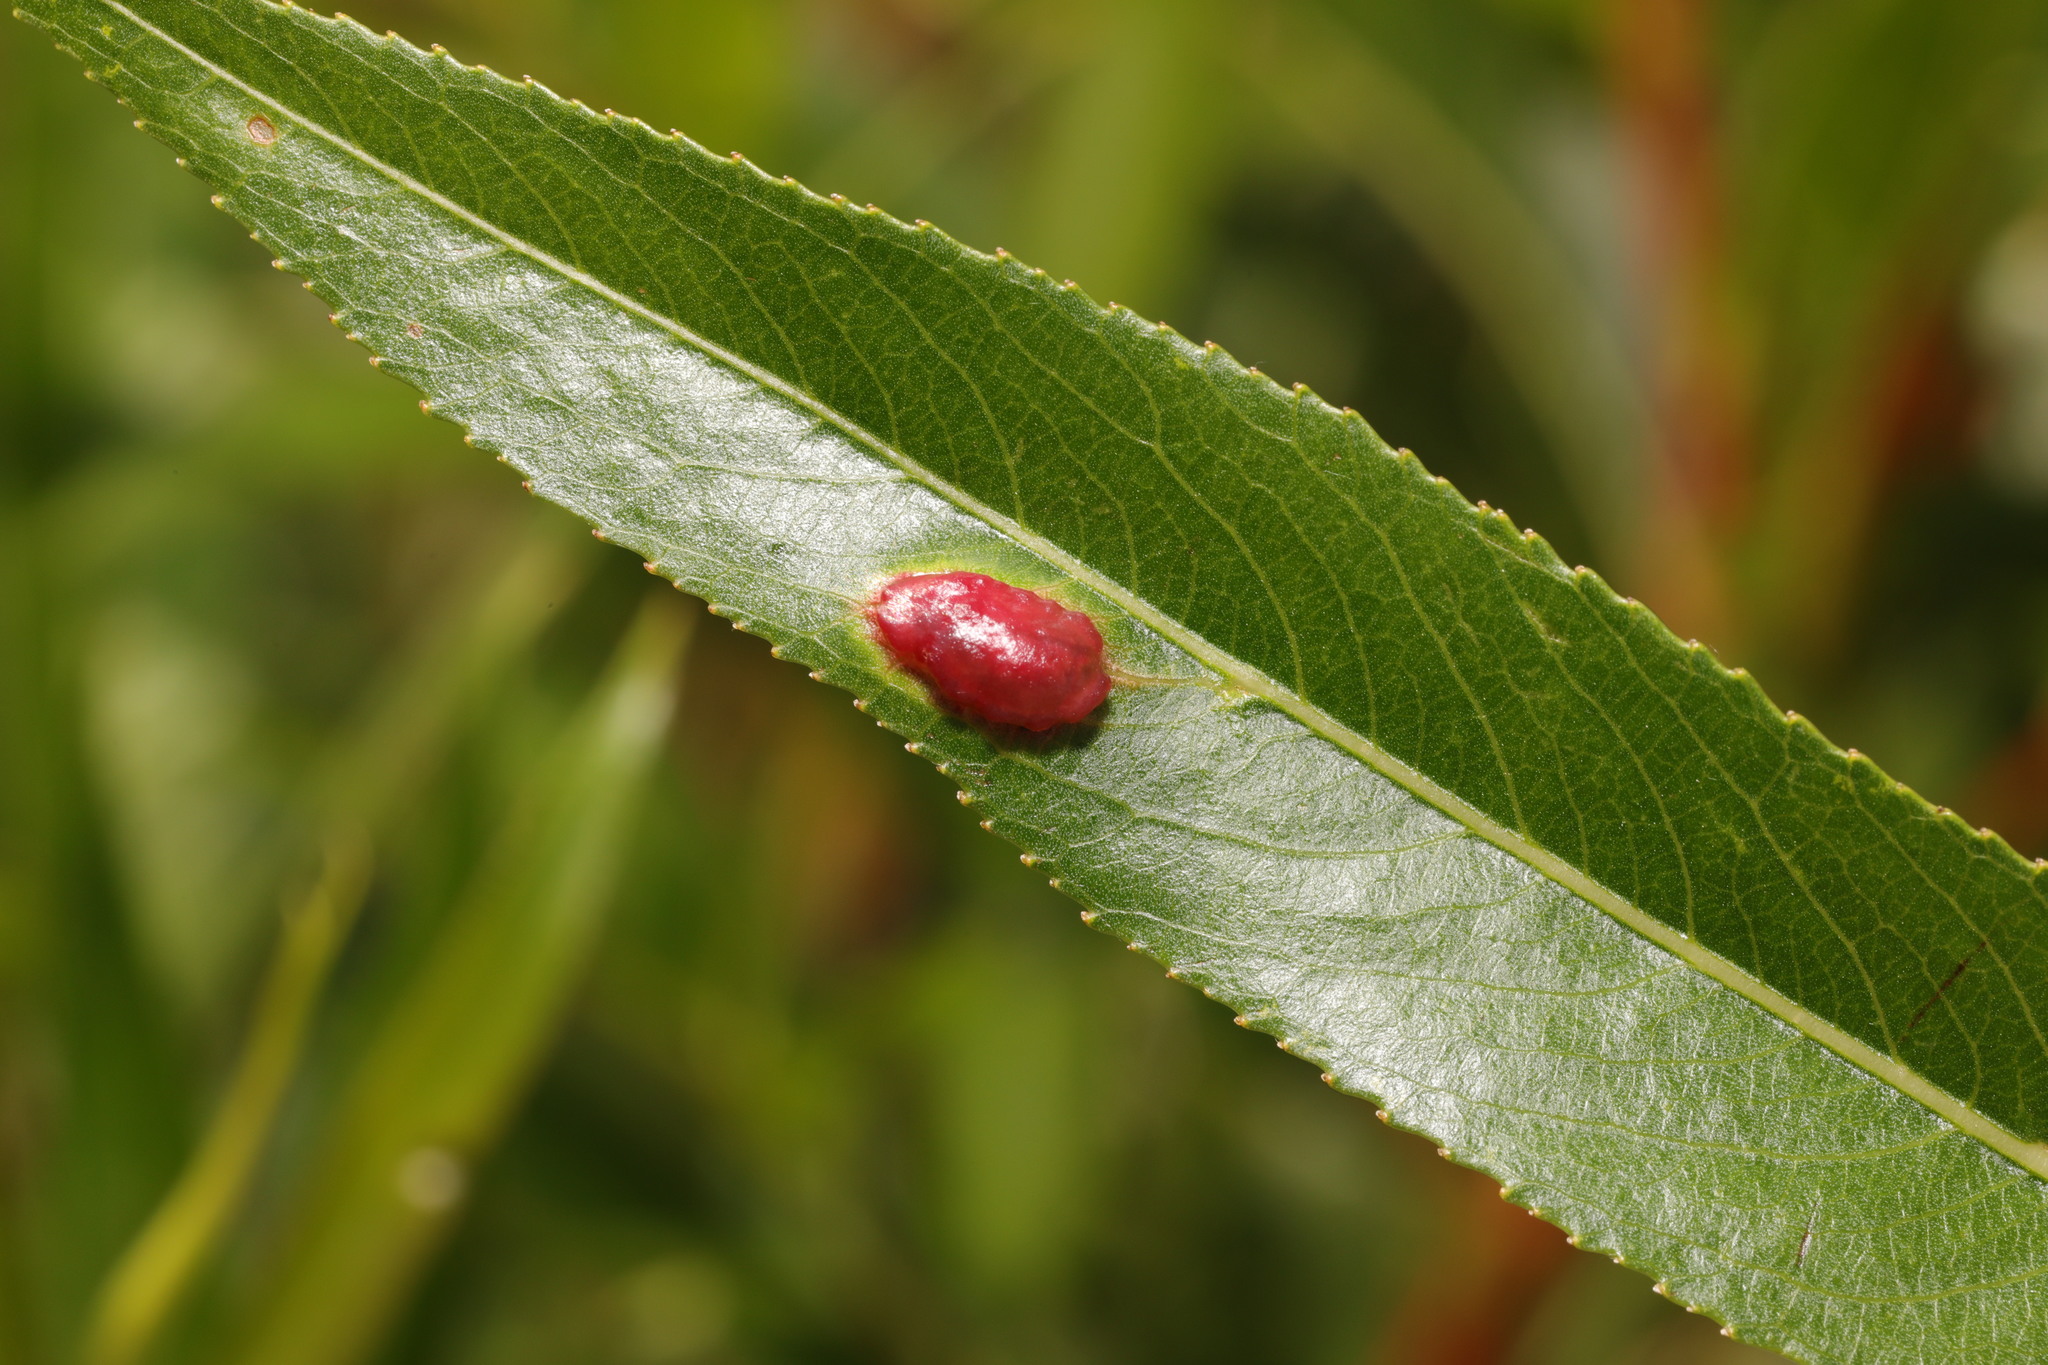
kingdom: Animalia
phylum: Arthropoda
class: Insecta
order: Hymenoptera
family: Tenthredinidae
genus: Pontania
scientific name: Pontania proxima
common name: Common sawfly
